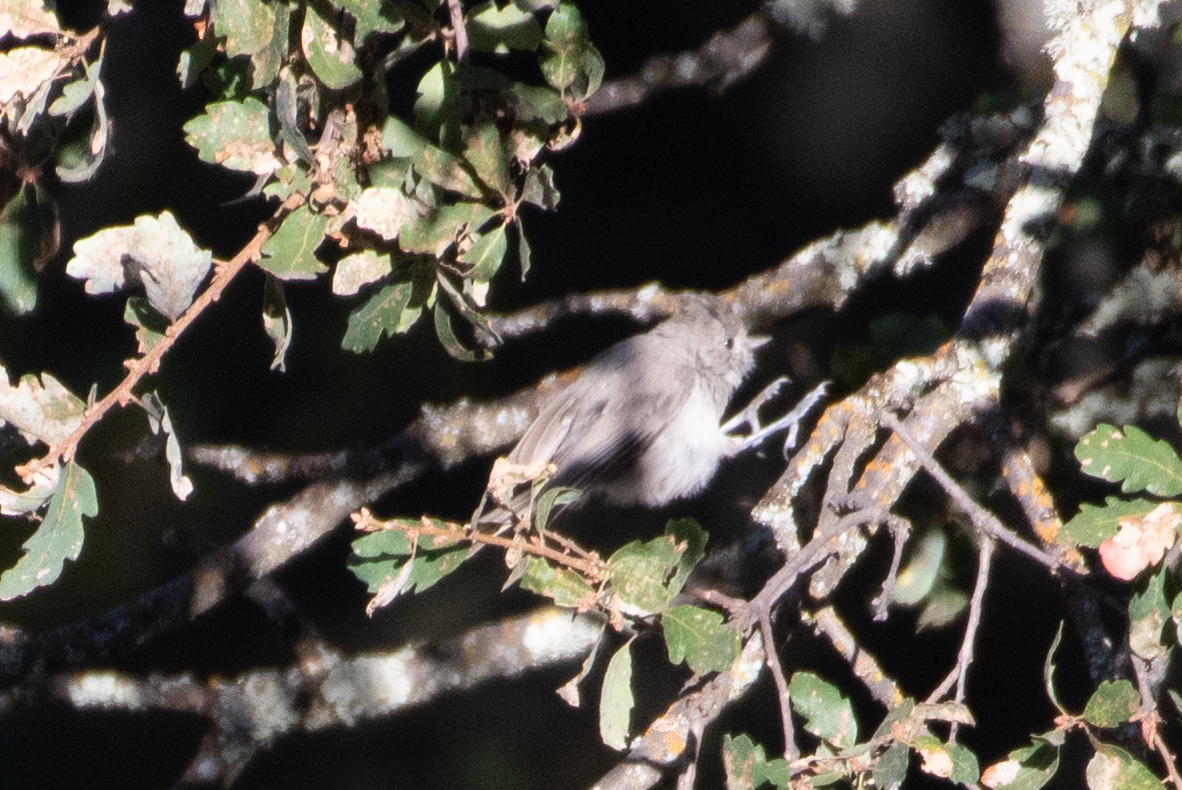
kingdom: Animalia
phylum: Chordata
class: Aves
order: Passeriformes
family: Paridae
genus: Baeolophus
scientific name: Baeolophus inornatus
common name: Oak titmouse
